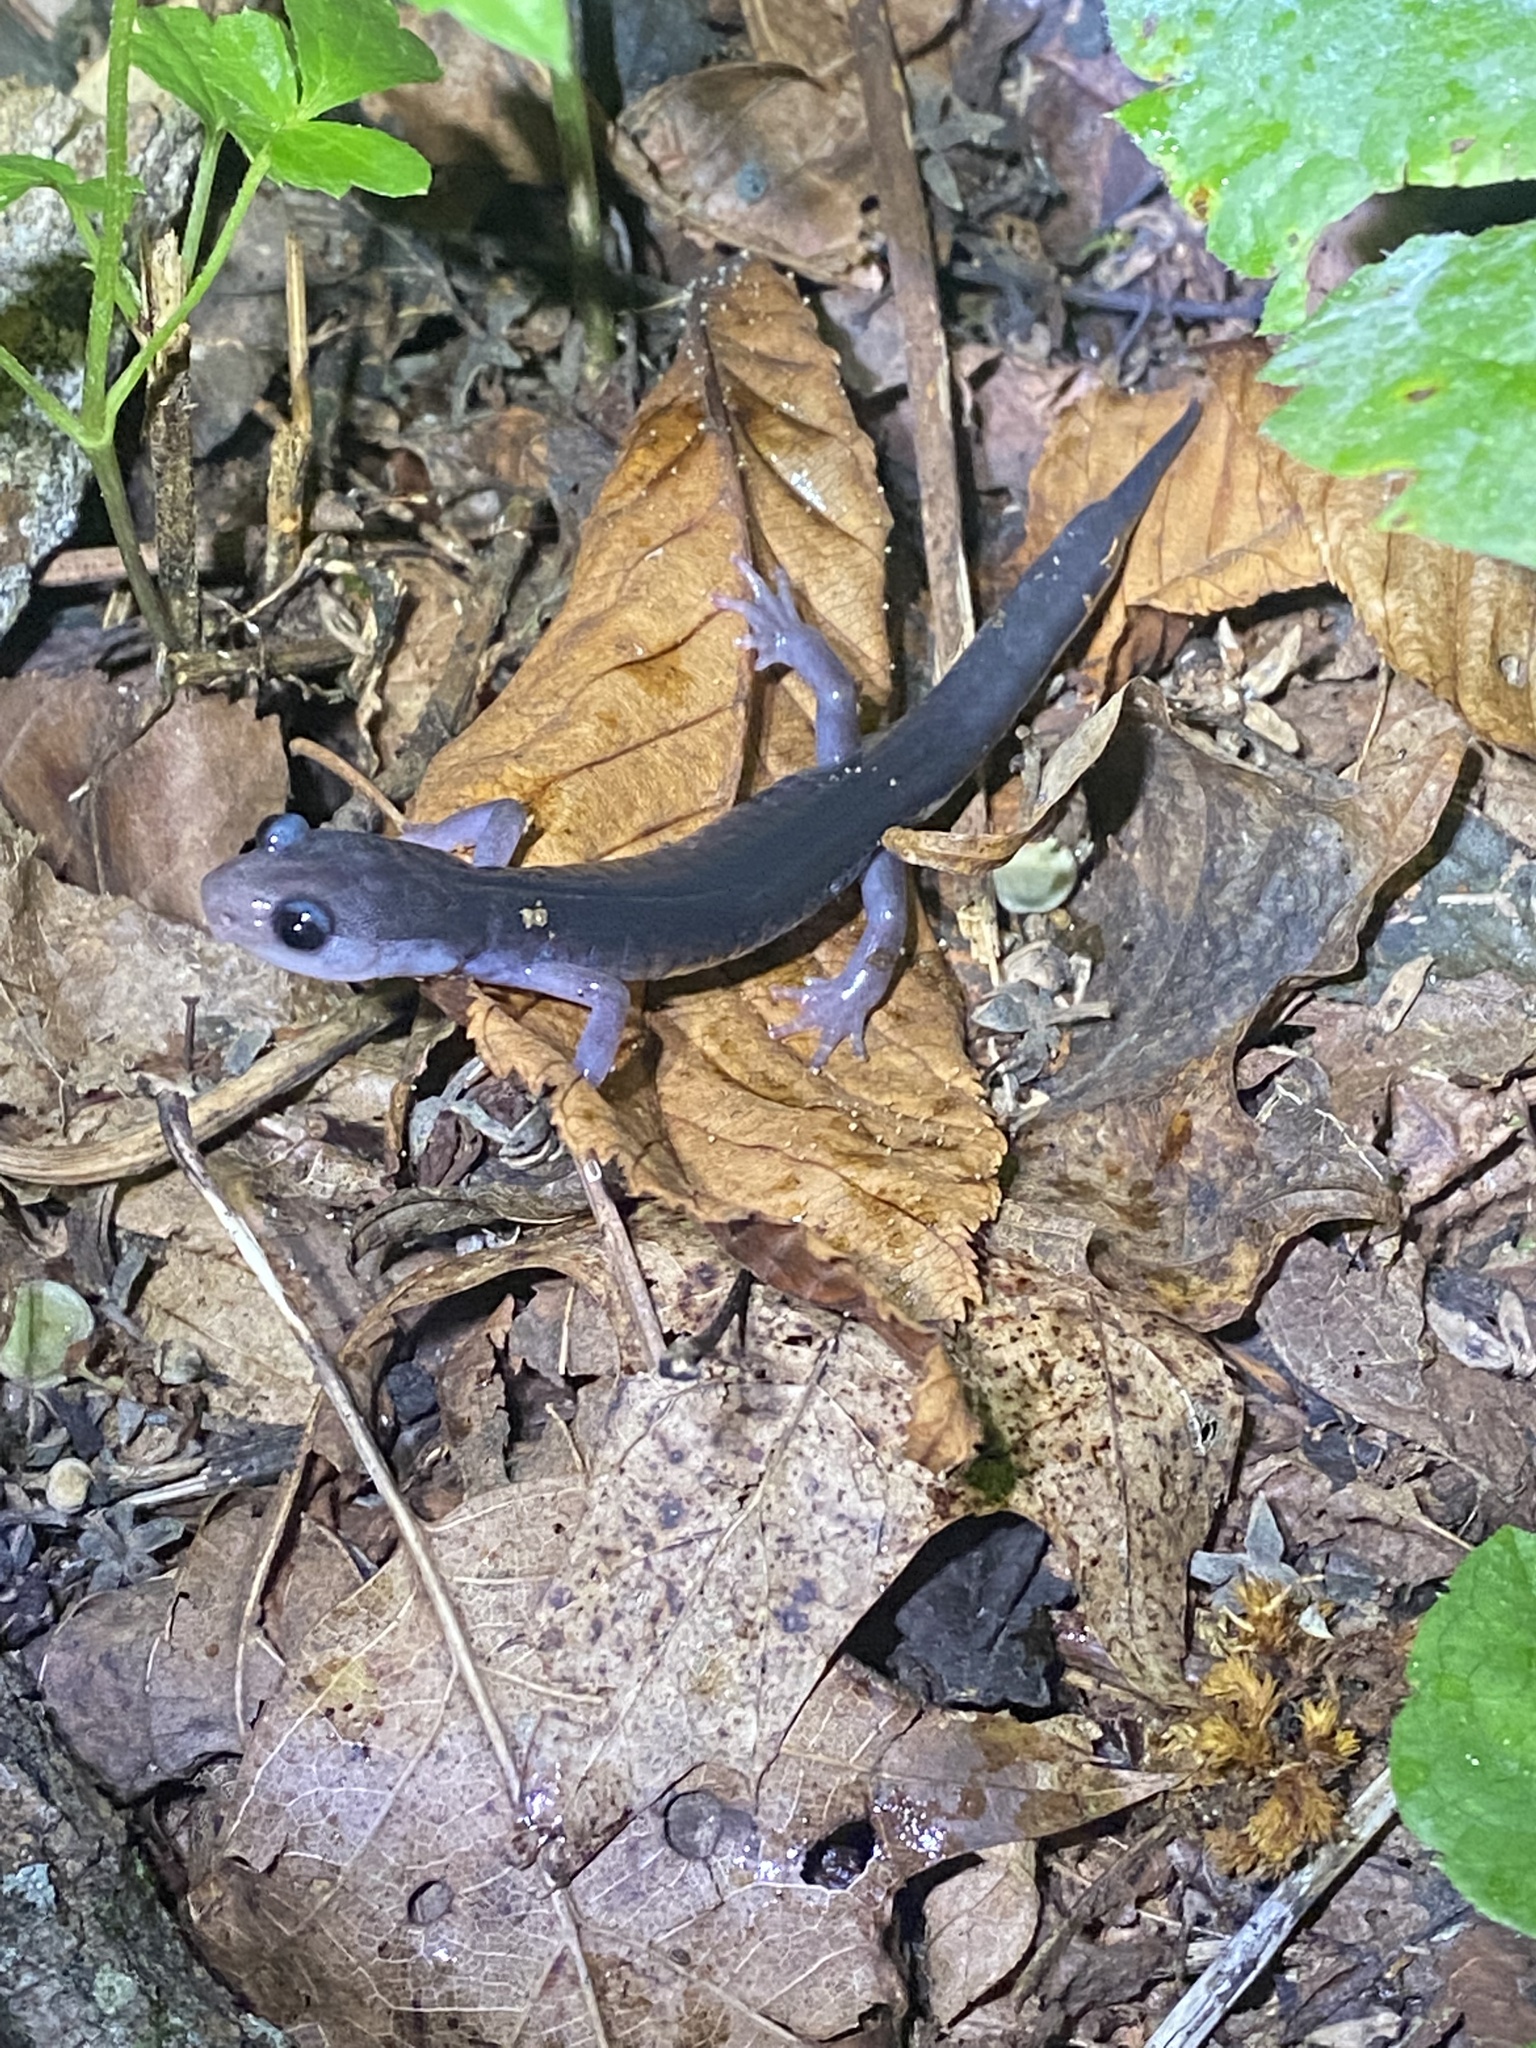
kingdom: Animalia
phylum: Chordata
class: Amphibia
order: Caudata
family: Plethodontidae
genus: Plethodon
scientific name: Plethodon montanus
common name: Northern gray-cheeked salamander
